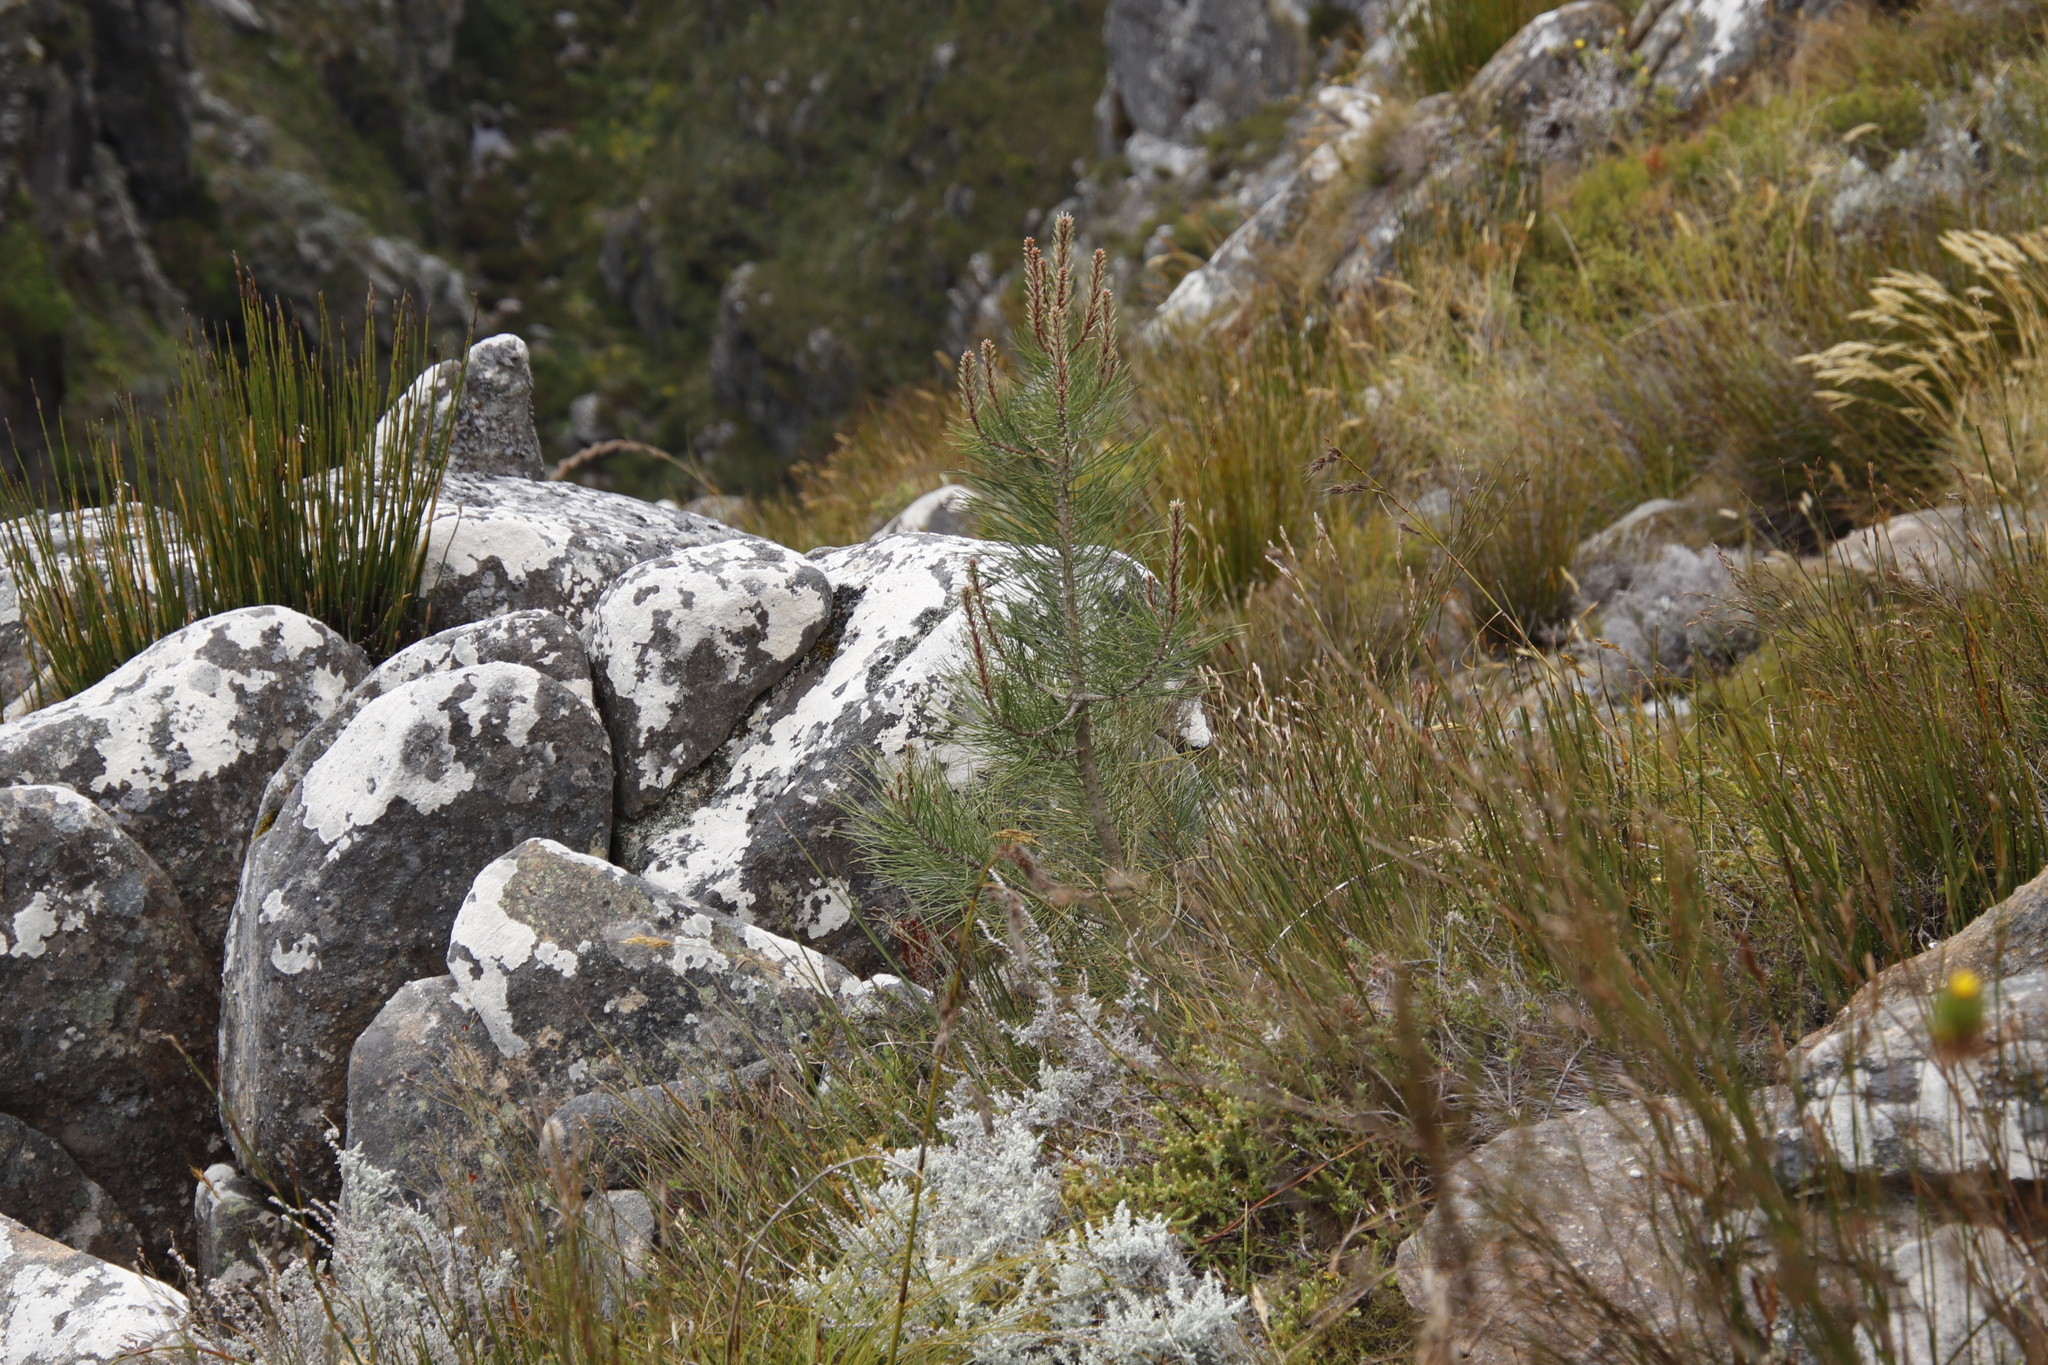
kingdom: Plantae
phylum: Tracheophyta
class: Pinopsida
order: Pinales
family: Pinaceae
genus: Pinus
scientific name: Pinus pinaster
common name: Maritime pine
